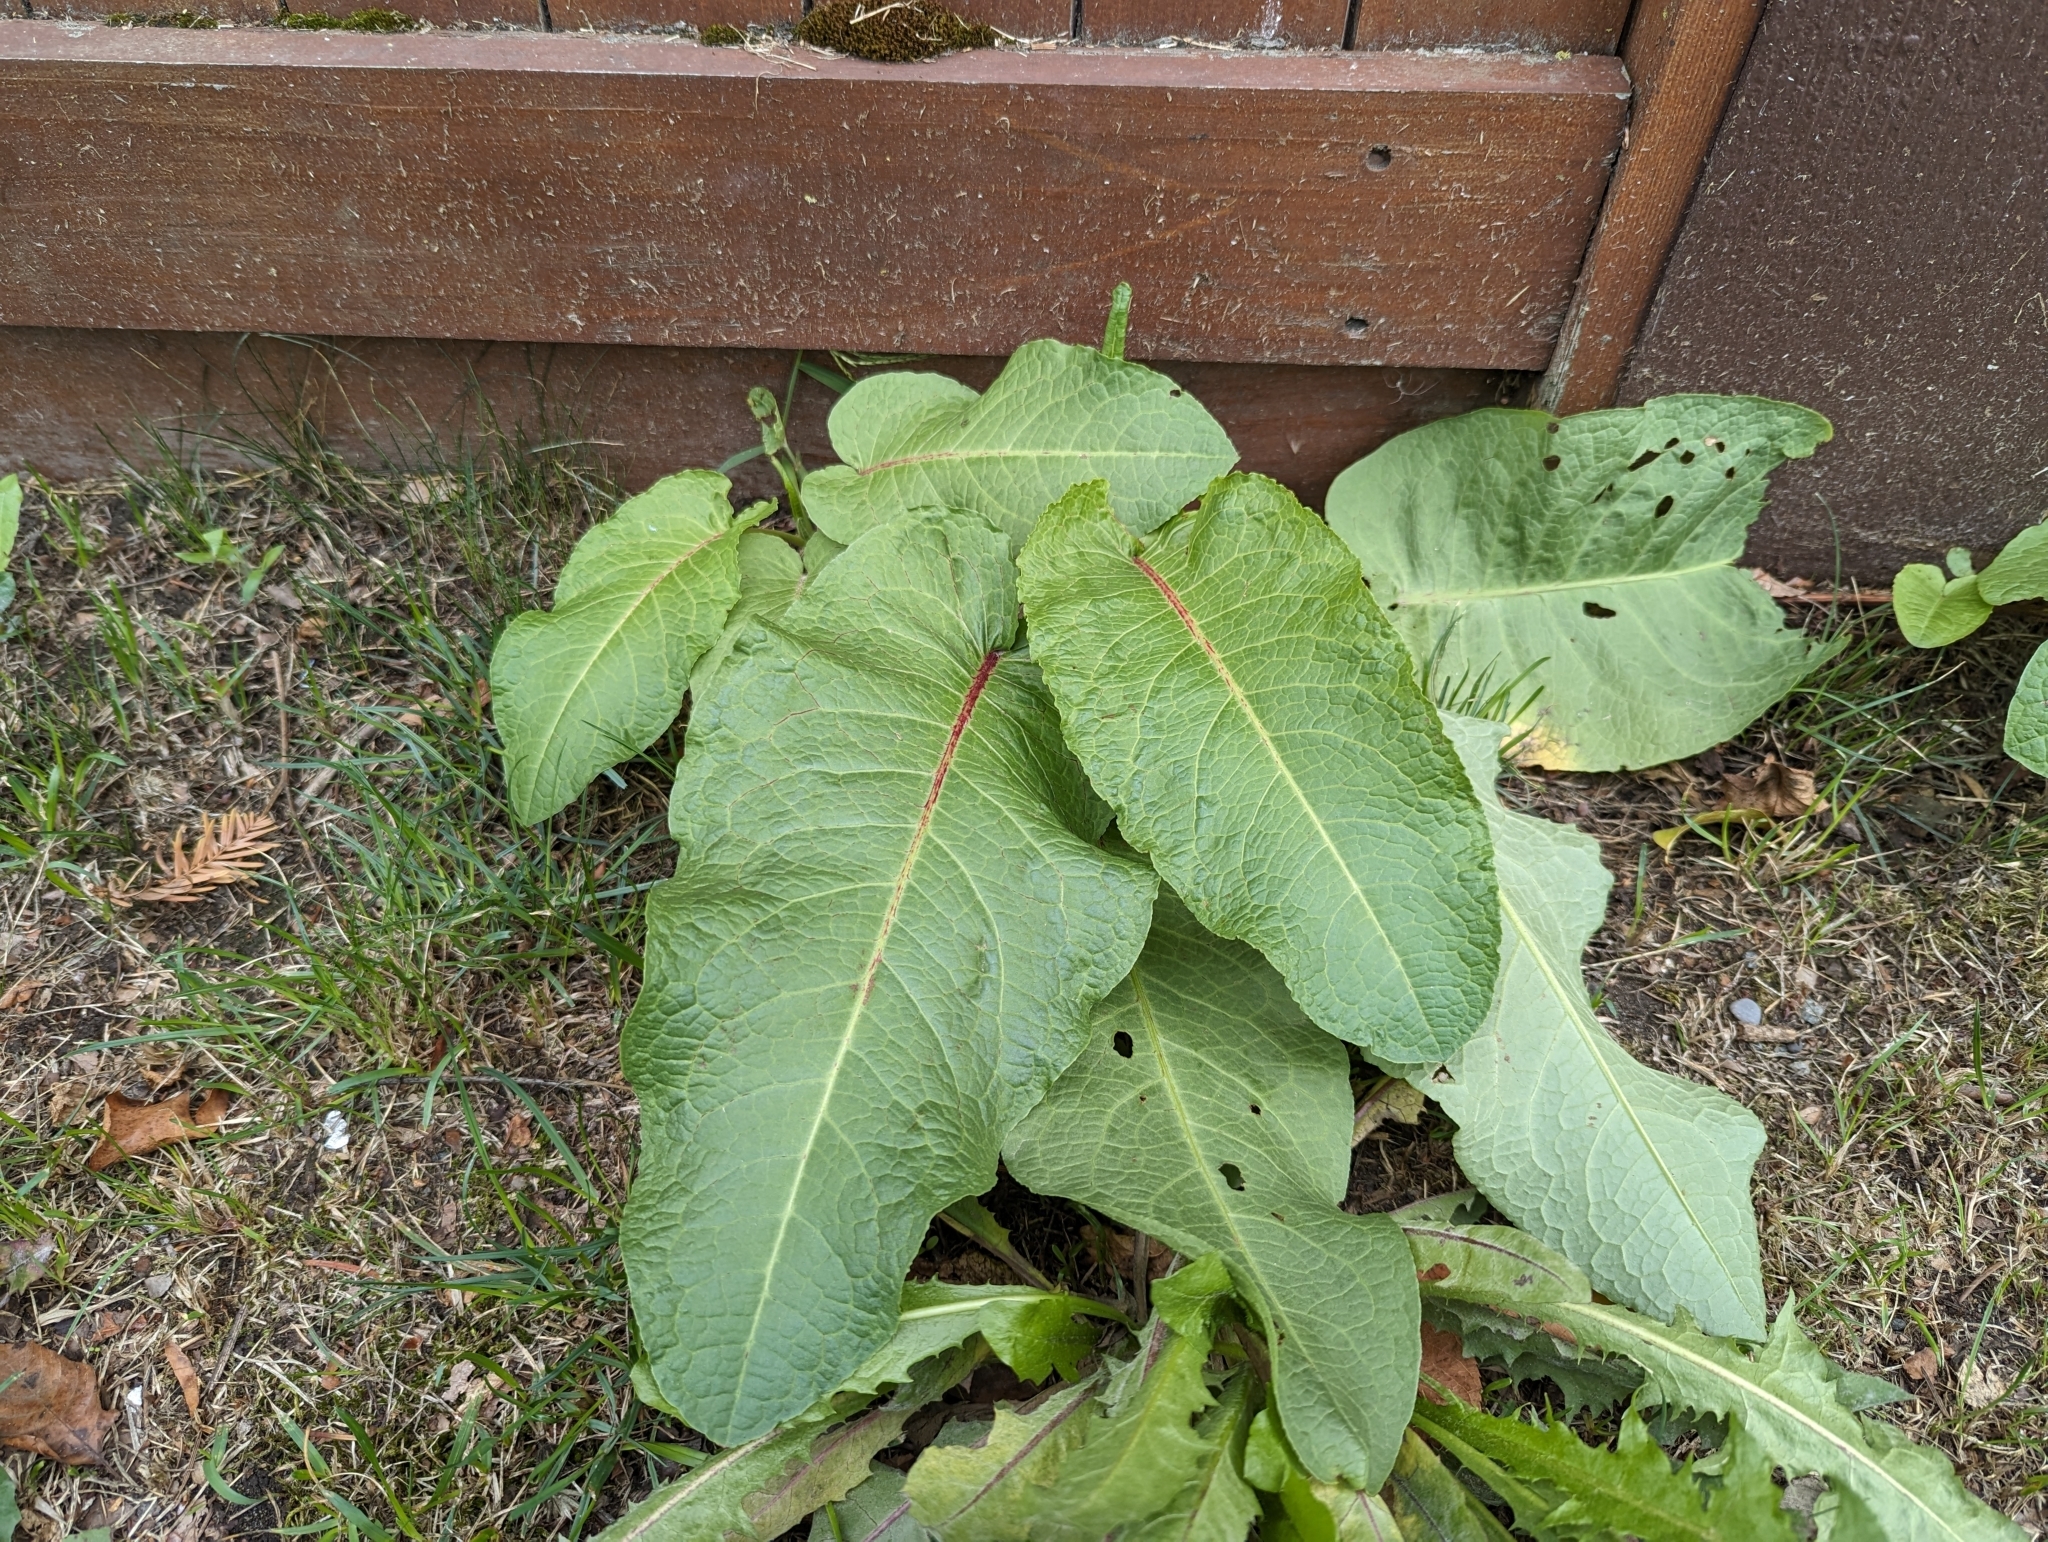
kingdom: Plantae
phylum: Tracheophyta
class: Magnoliopsida
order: Caryophyllales
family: Polygonaceae
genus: Rumex
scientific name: Rumex obtusifolius
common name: Bitter dock
